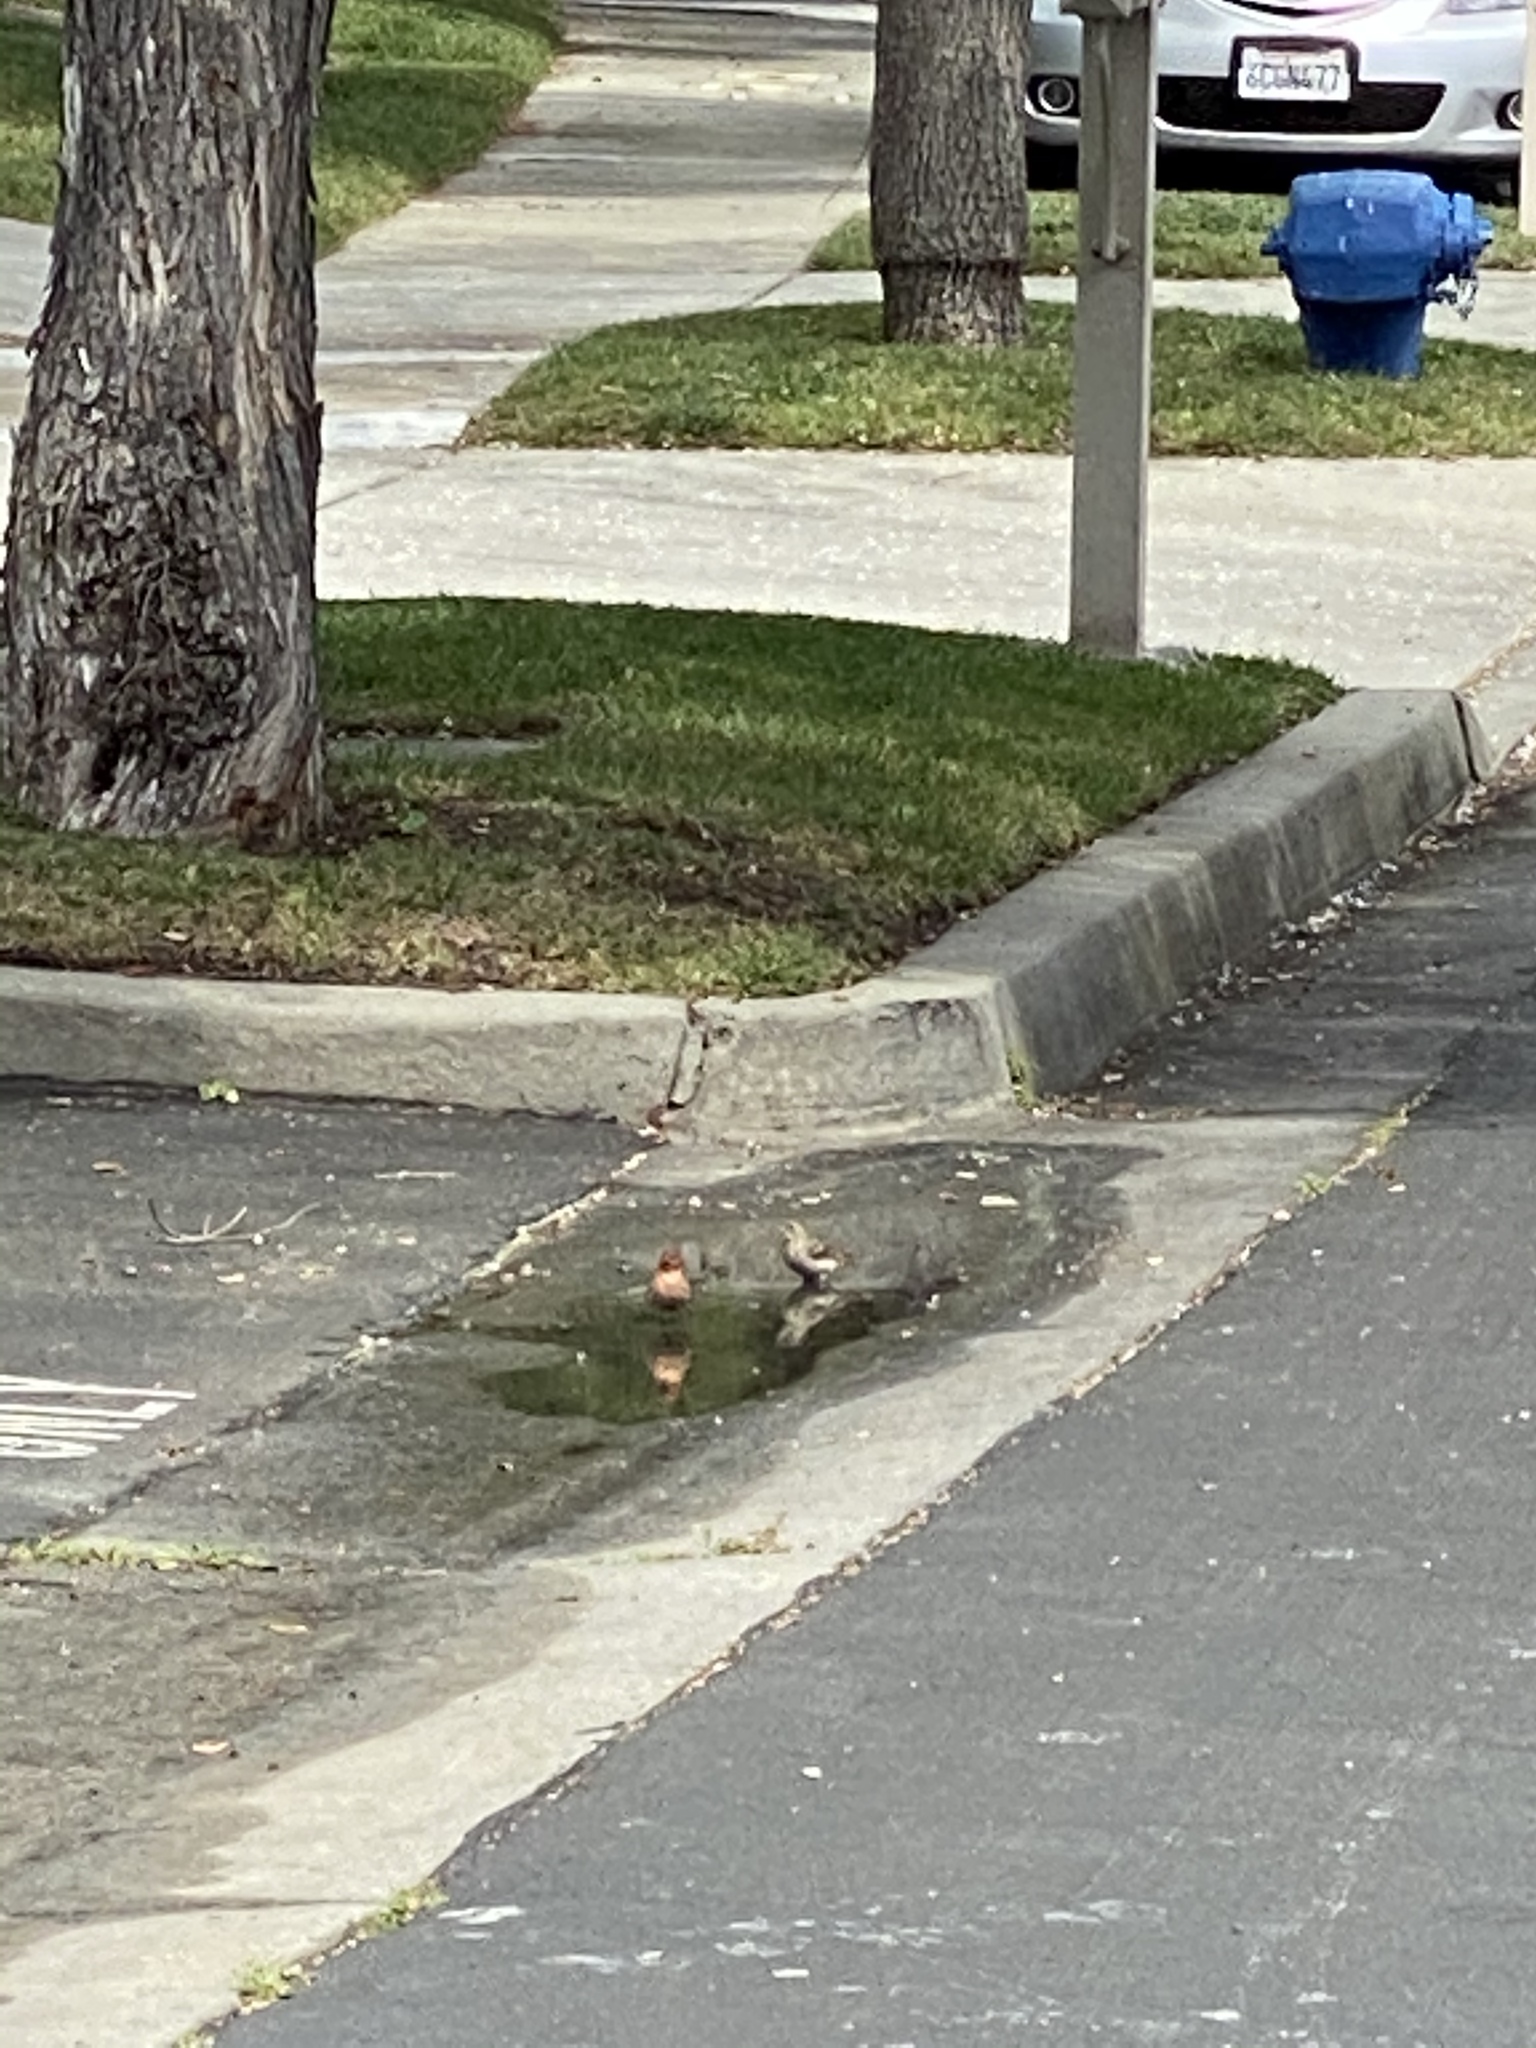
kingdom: Animalia
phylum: Chordata
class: Aves
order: Passeriformes
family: Fringillidae
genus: Haemorhous
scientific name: Haemorhous mexicanus
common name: House finch
